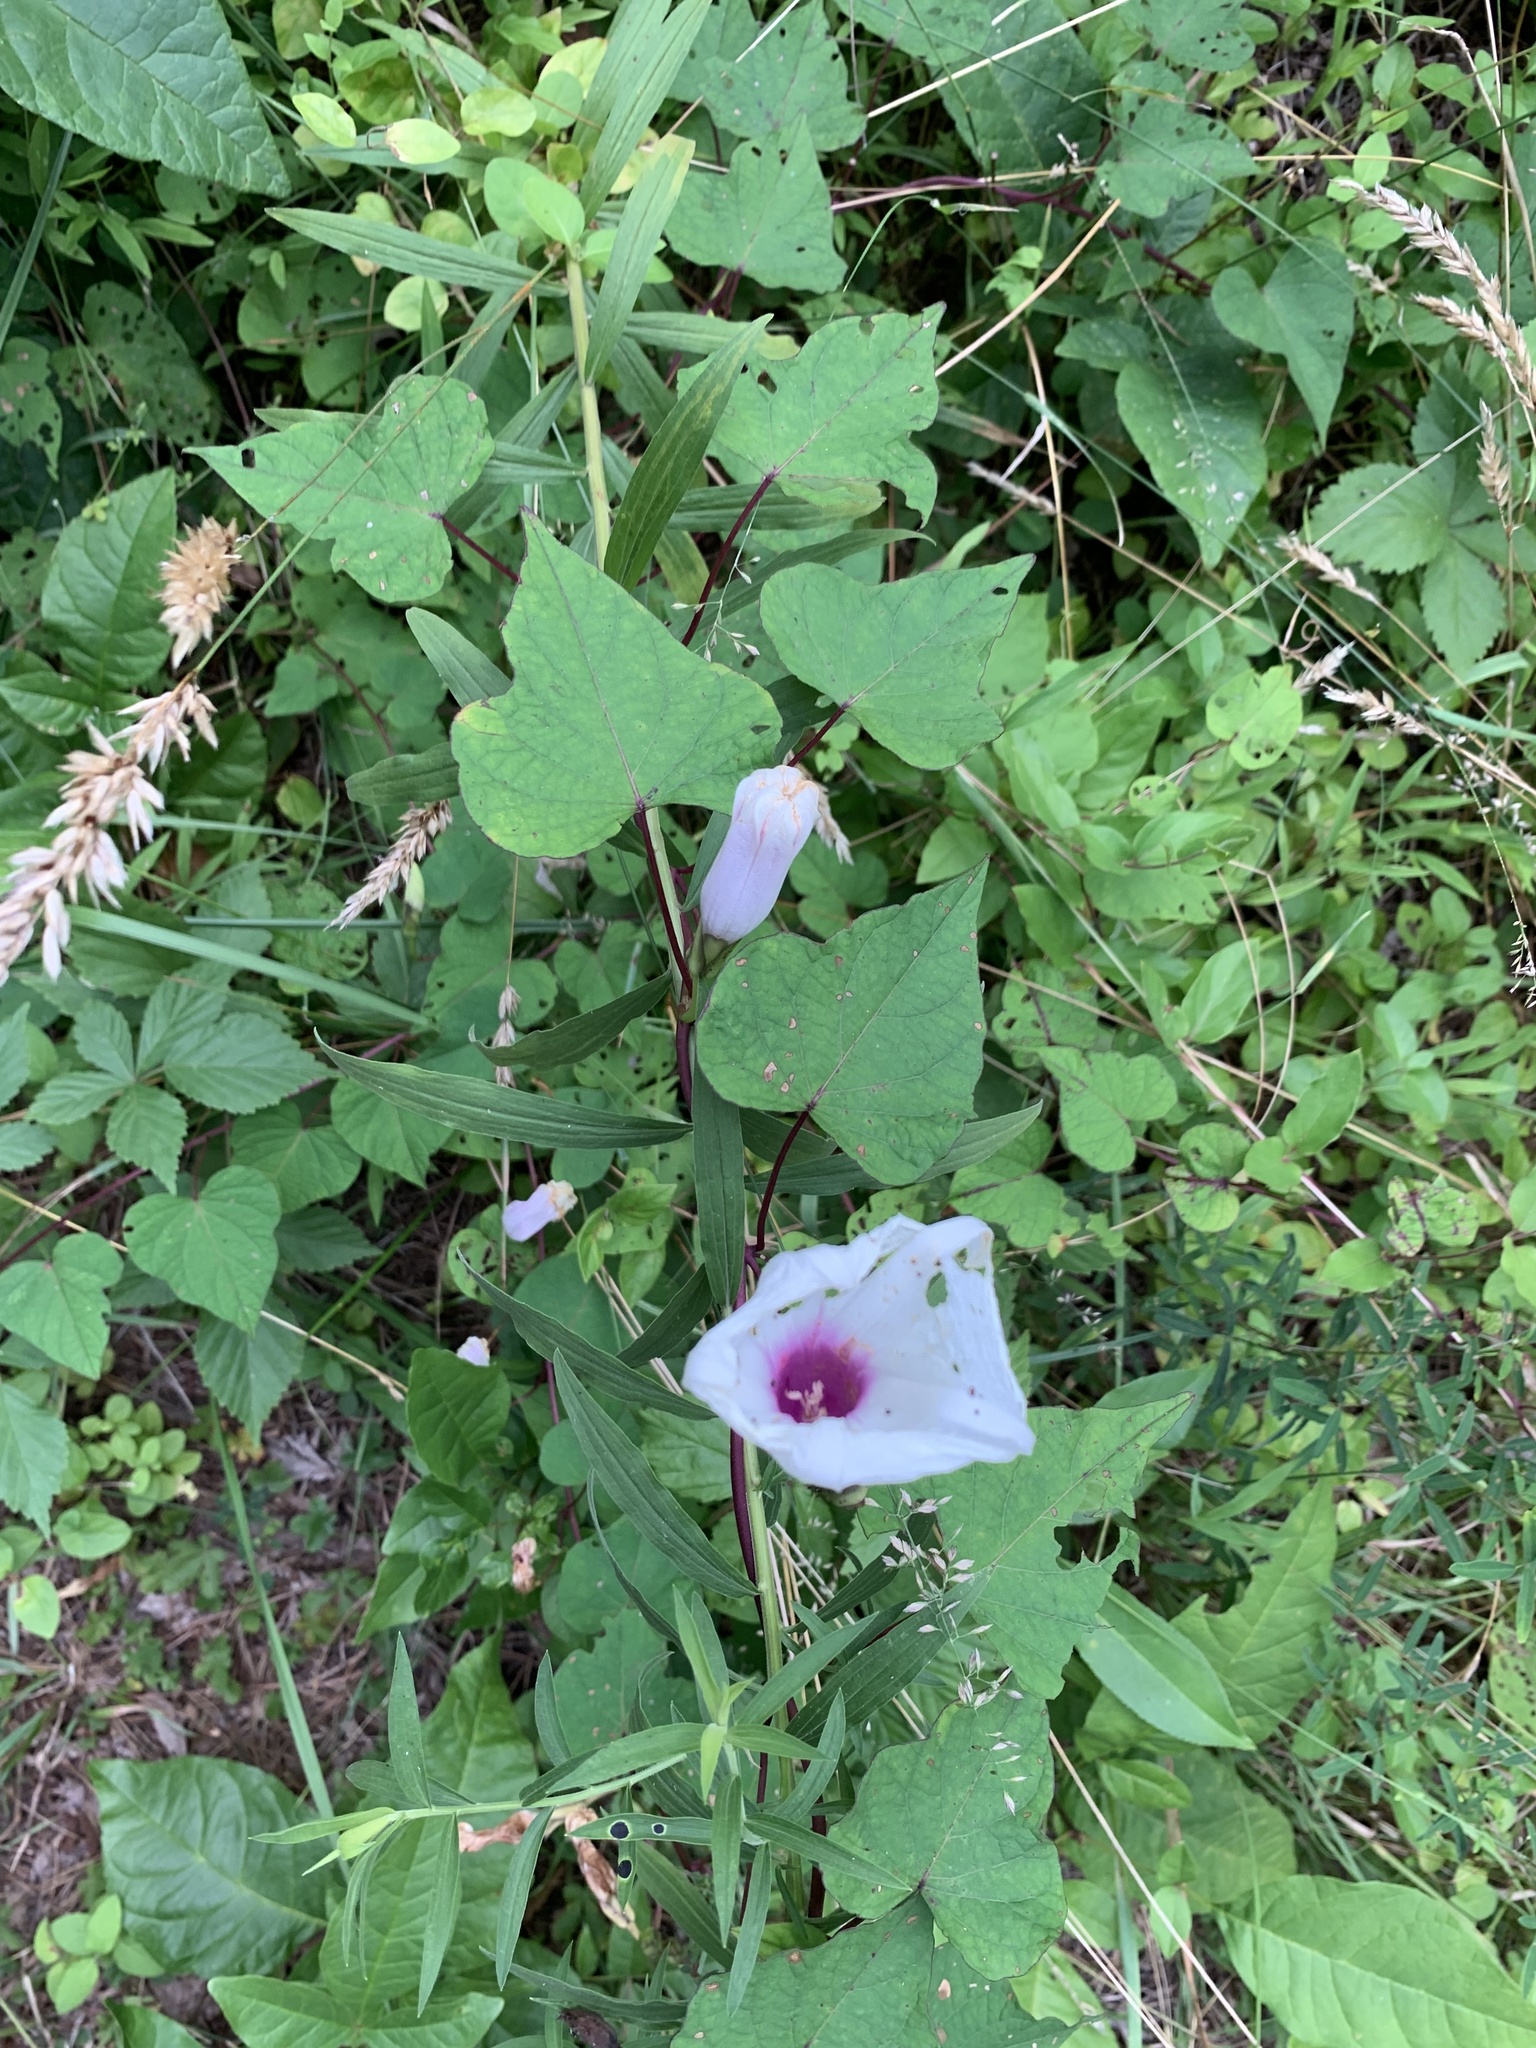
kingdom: Plantae
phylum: Tracheophyta
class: Magnoliopsida
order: Solanales
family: Convolvulaceae
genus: Ipomoea
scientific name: Ipomoea pandurata
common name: Man-of-the-earth
